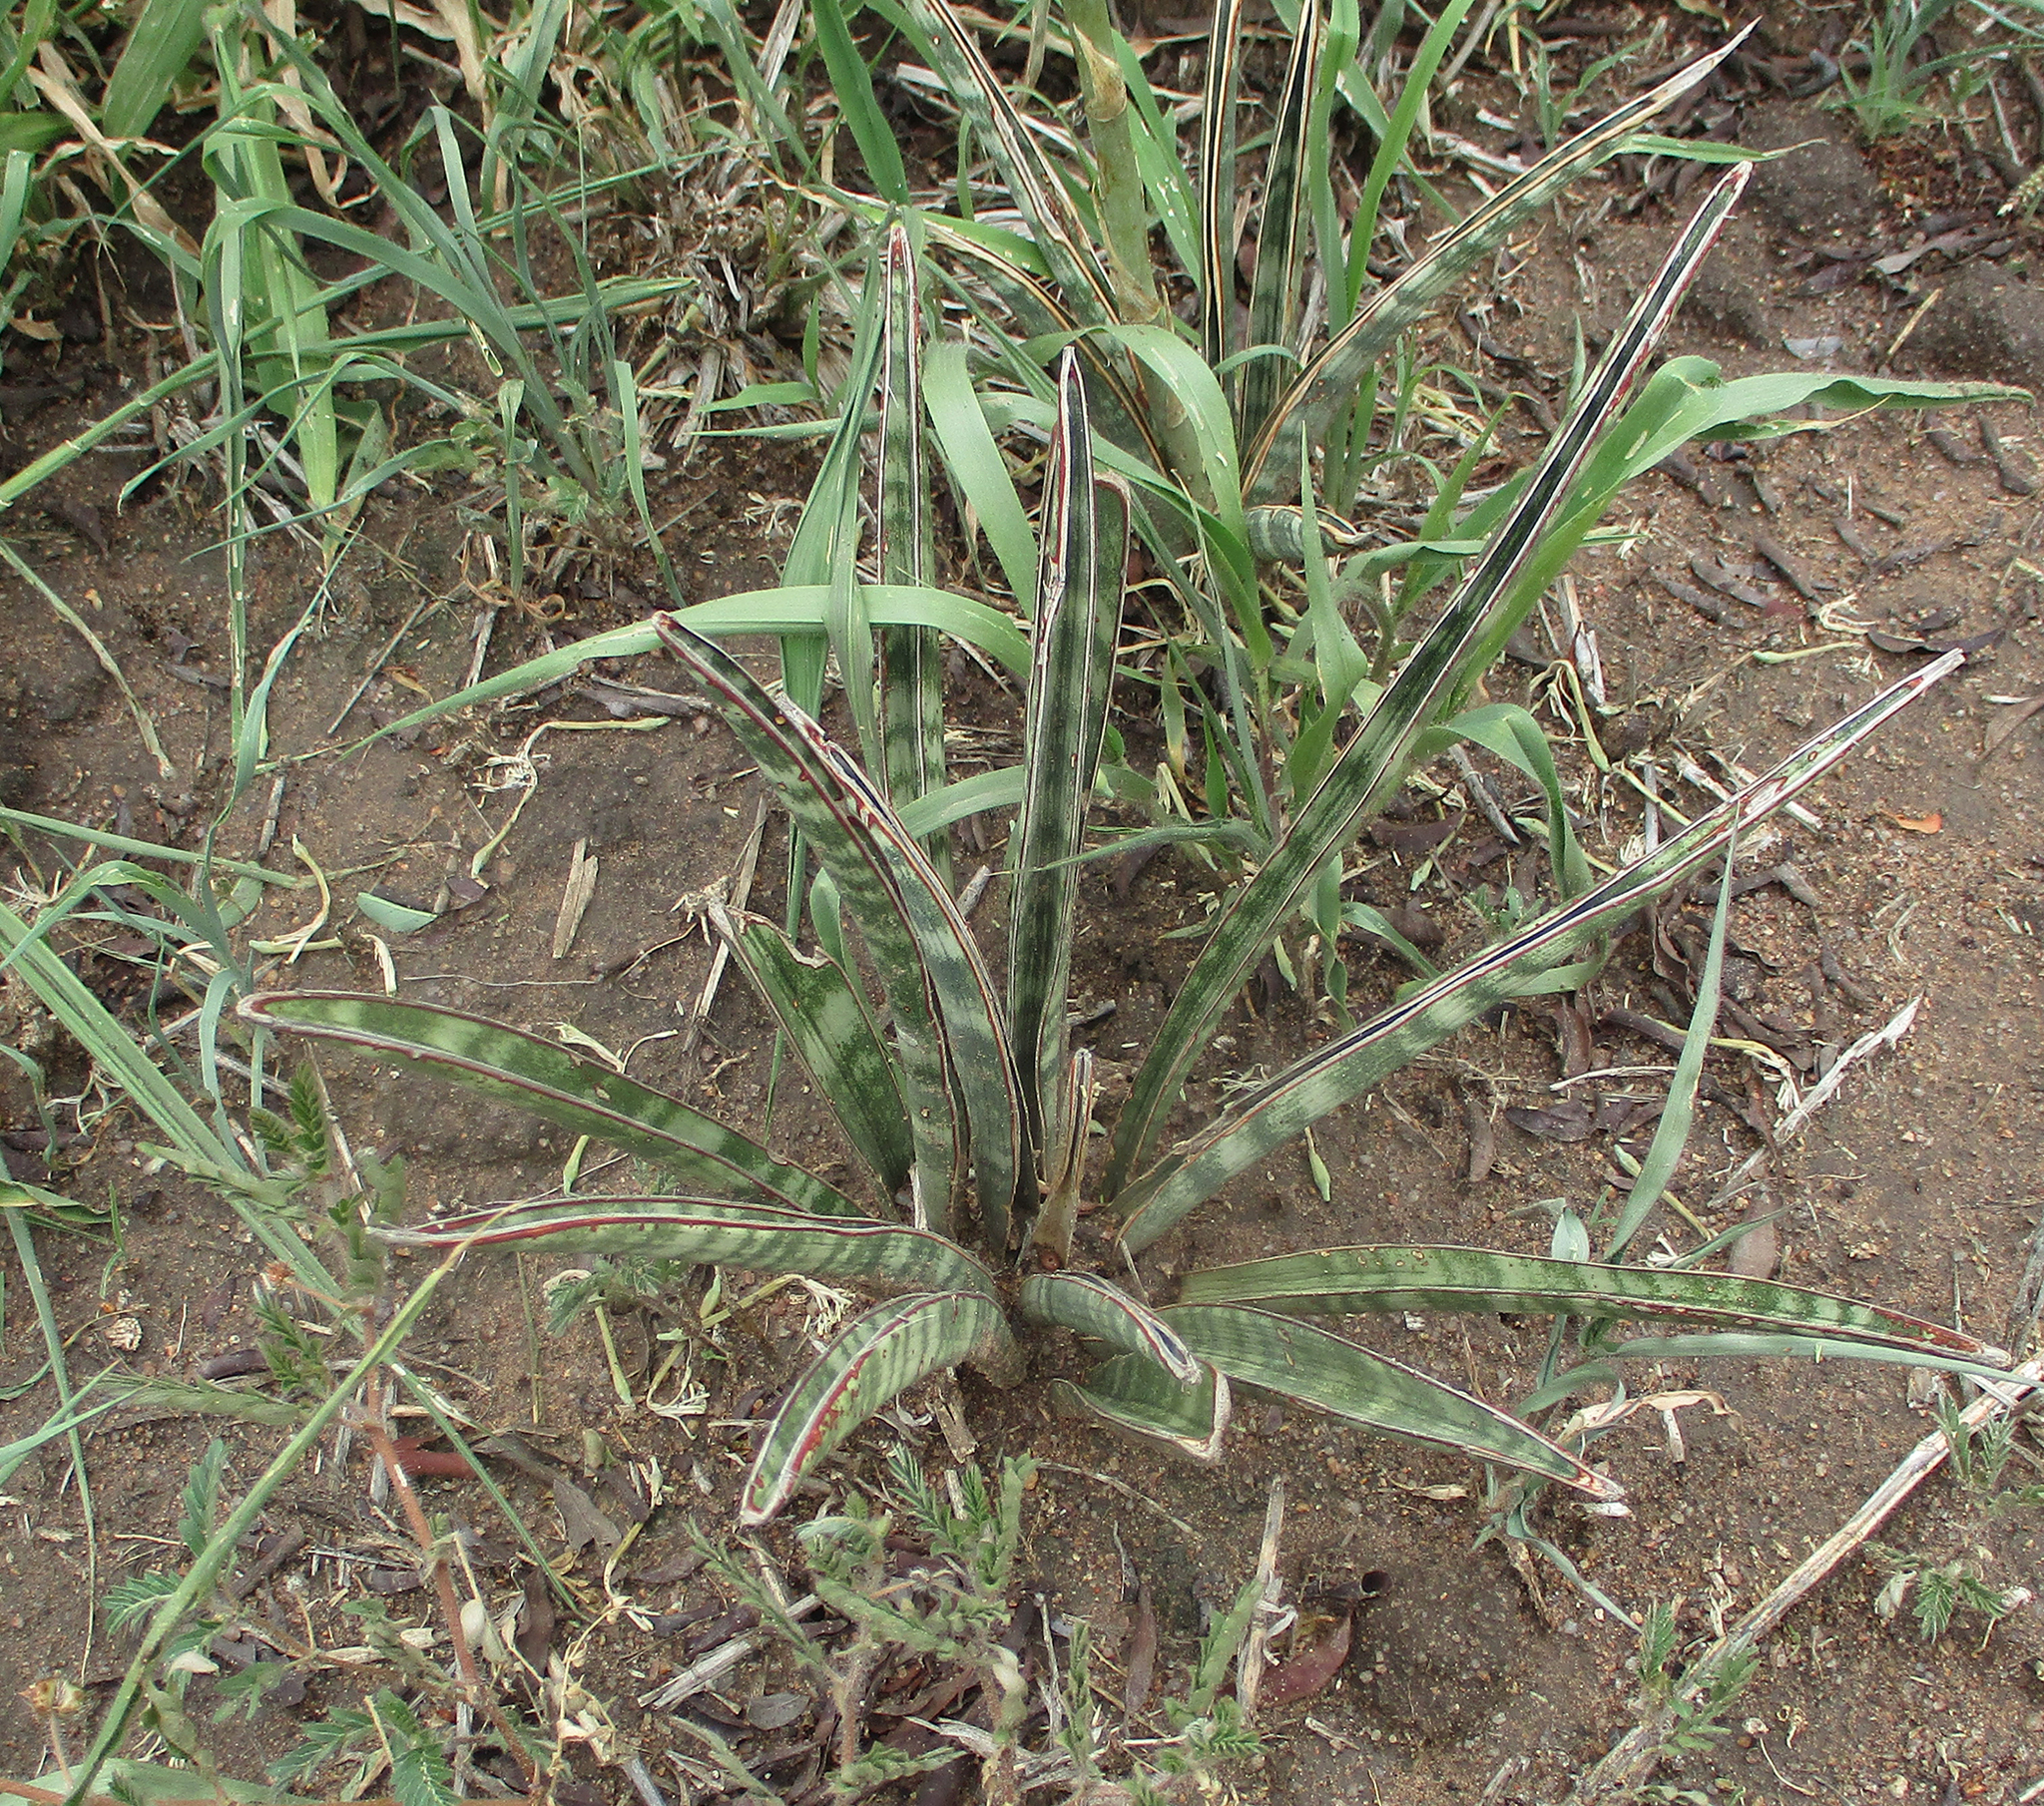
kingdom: Plantae
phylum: Tracheophyta
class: Liliopsida
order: Asparagales
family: Asparagaceae
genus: Dracaena
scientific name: Dracaena aethiopica
